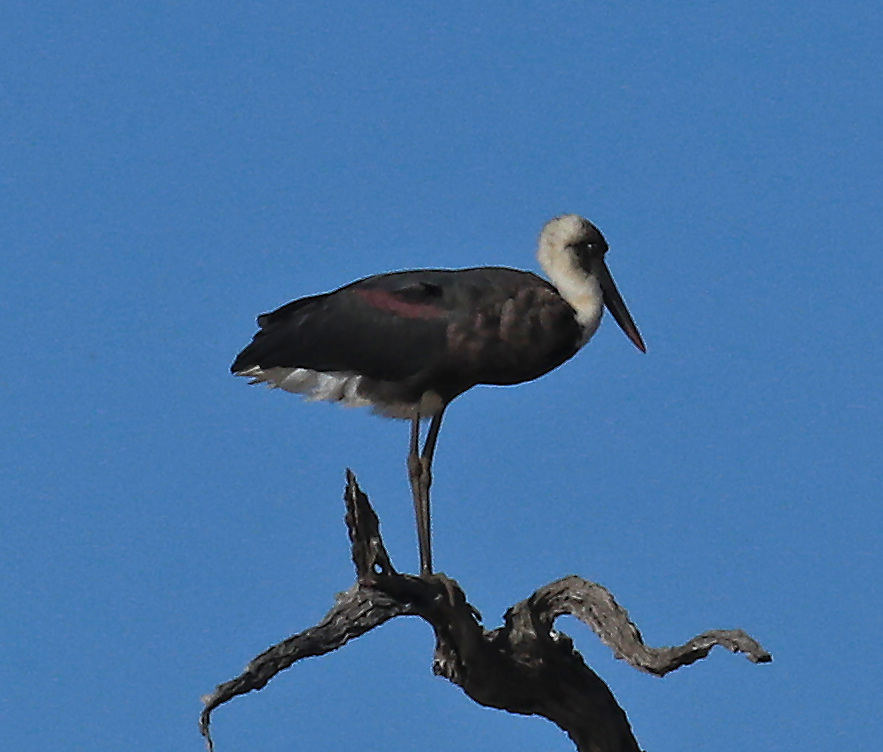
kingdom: Animalia
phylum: Chordata
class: Aves
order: Ciconiiformes
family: Ciconiidae
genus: Ciconia
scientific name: Ciconia microscelis
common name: African woollyneck
